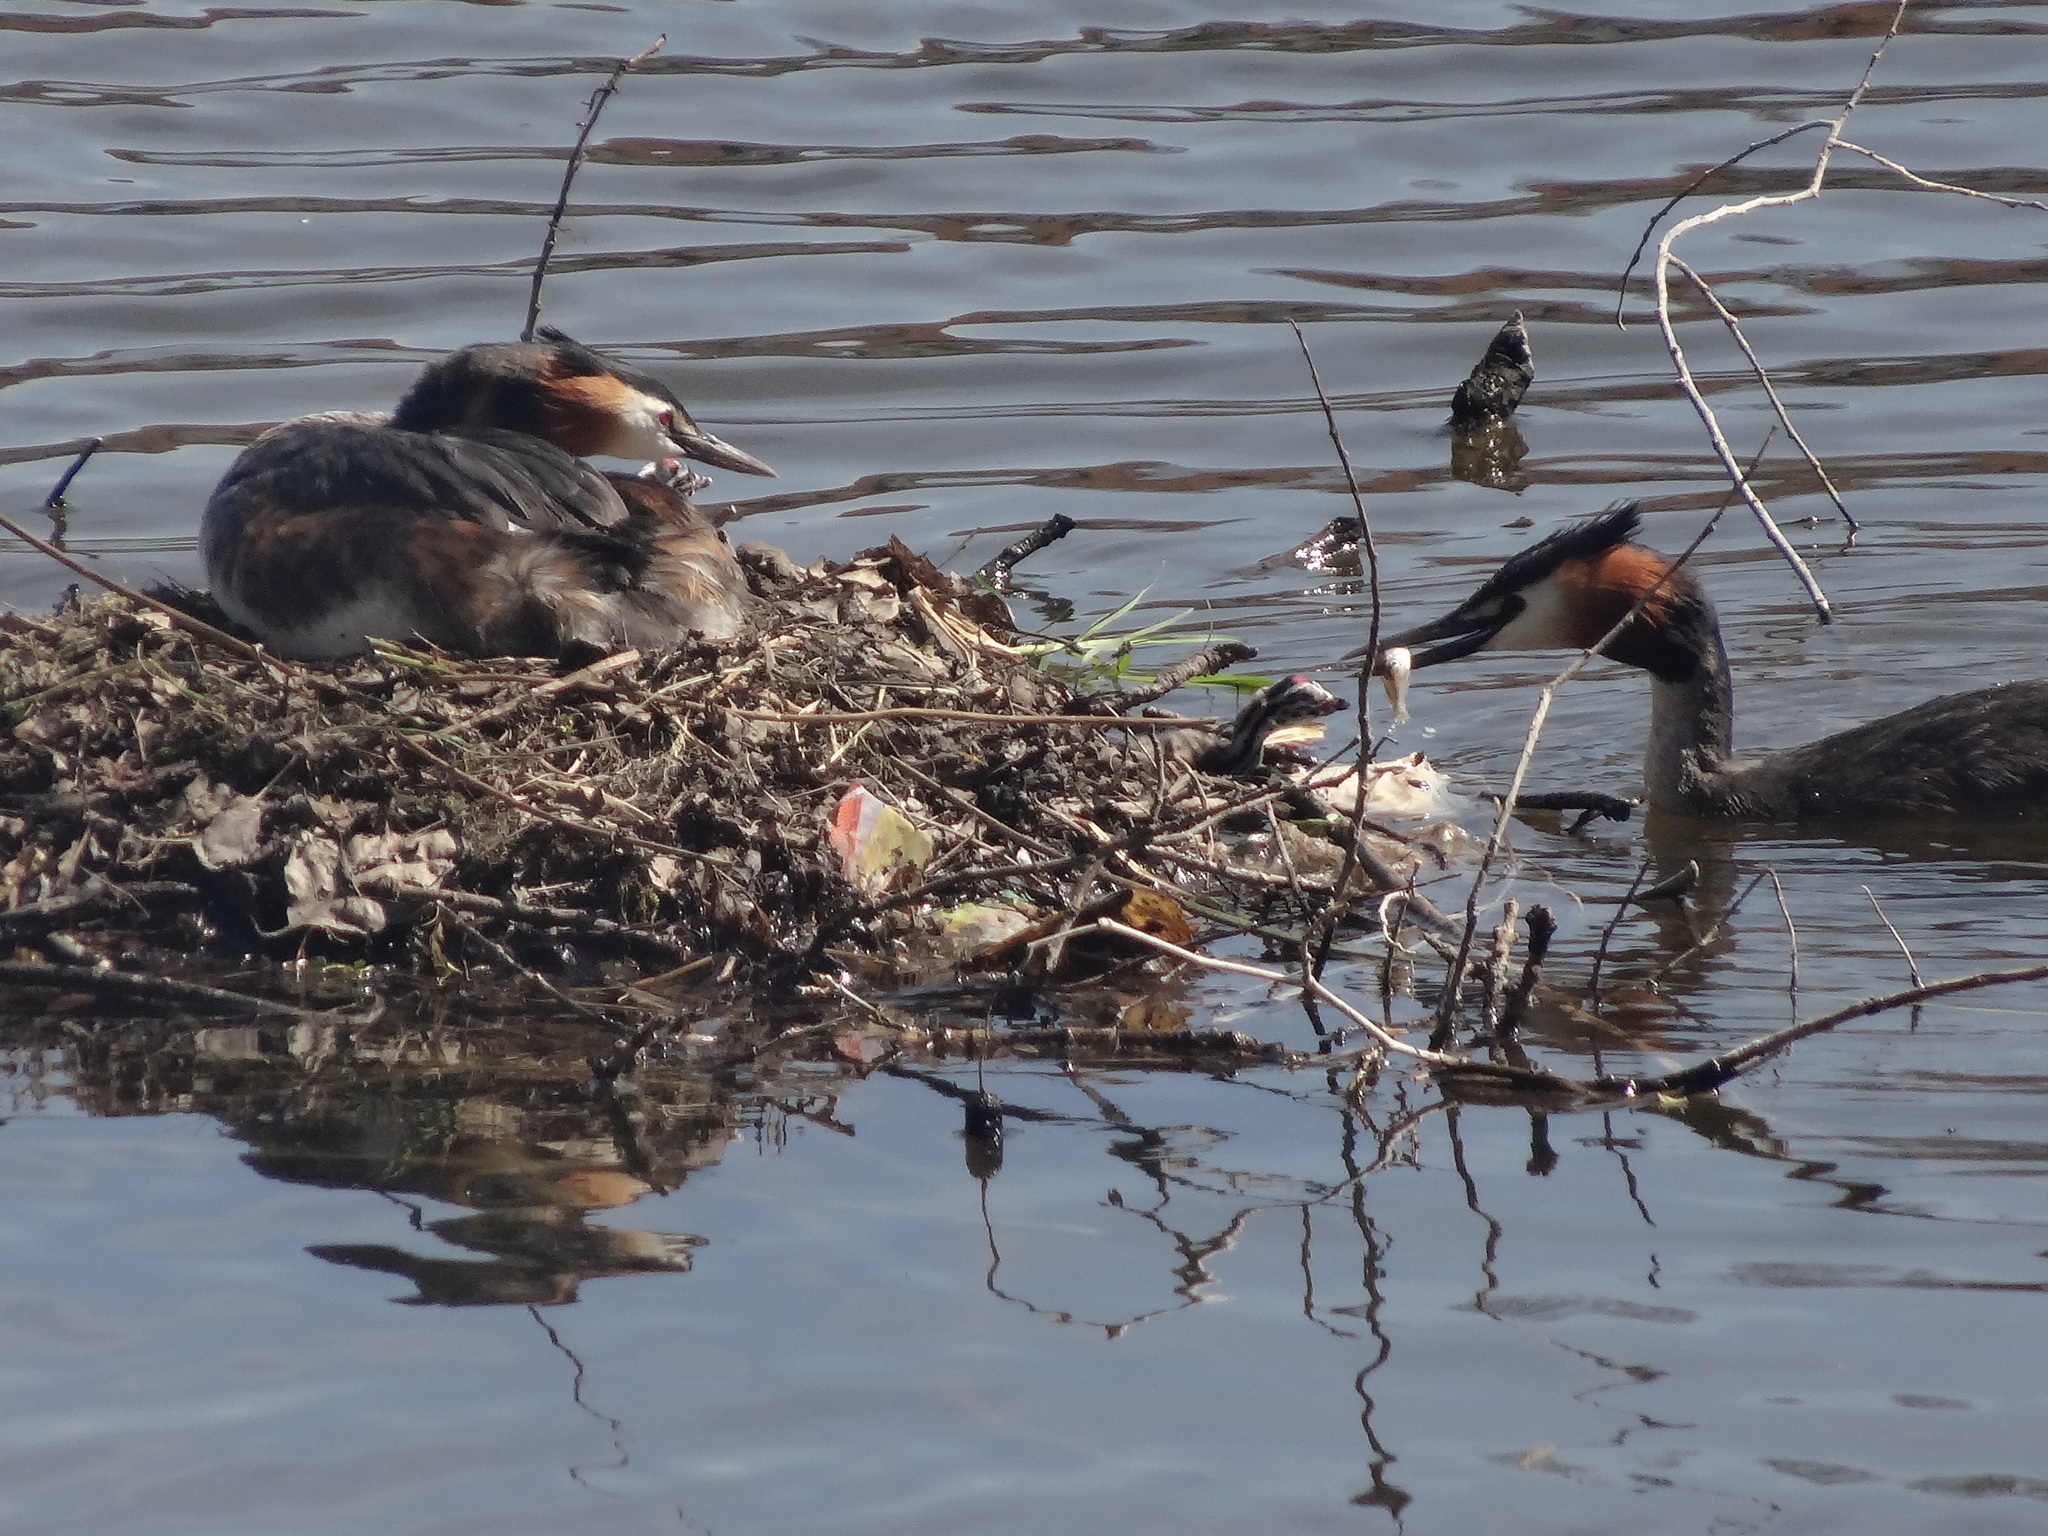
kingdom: Animalia
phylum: Chordata
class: Aves
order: Podicipediformes
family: Podicipedidae
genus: Podiceps
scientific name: Podiceps cristatus
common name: Great crested grebe
